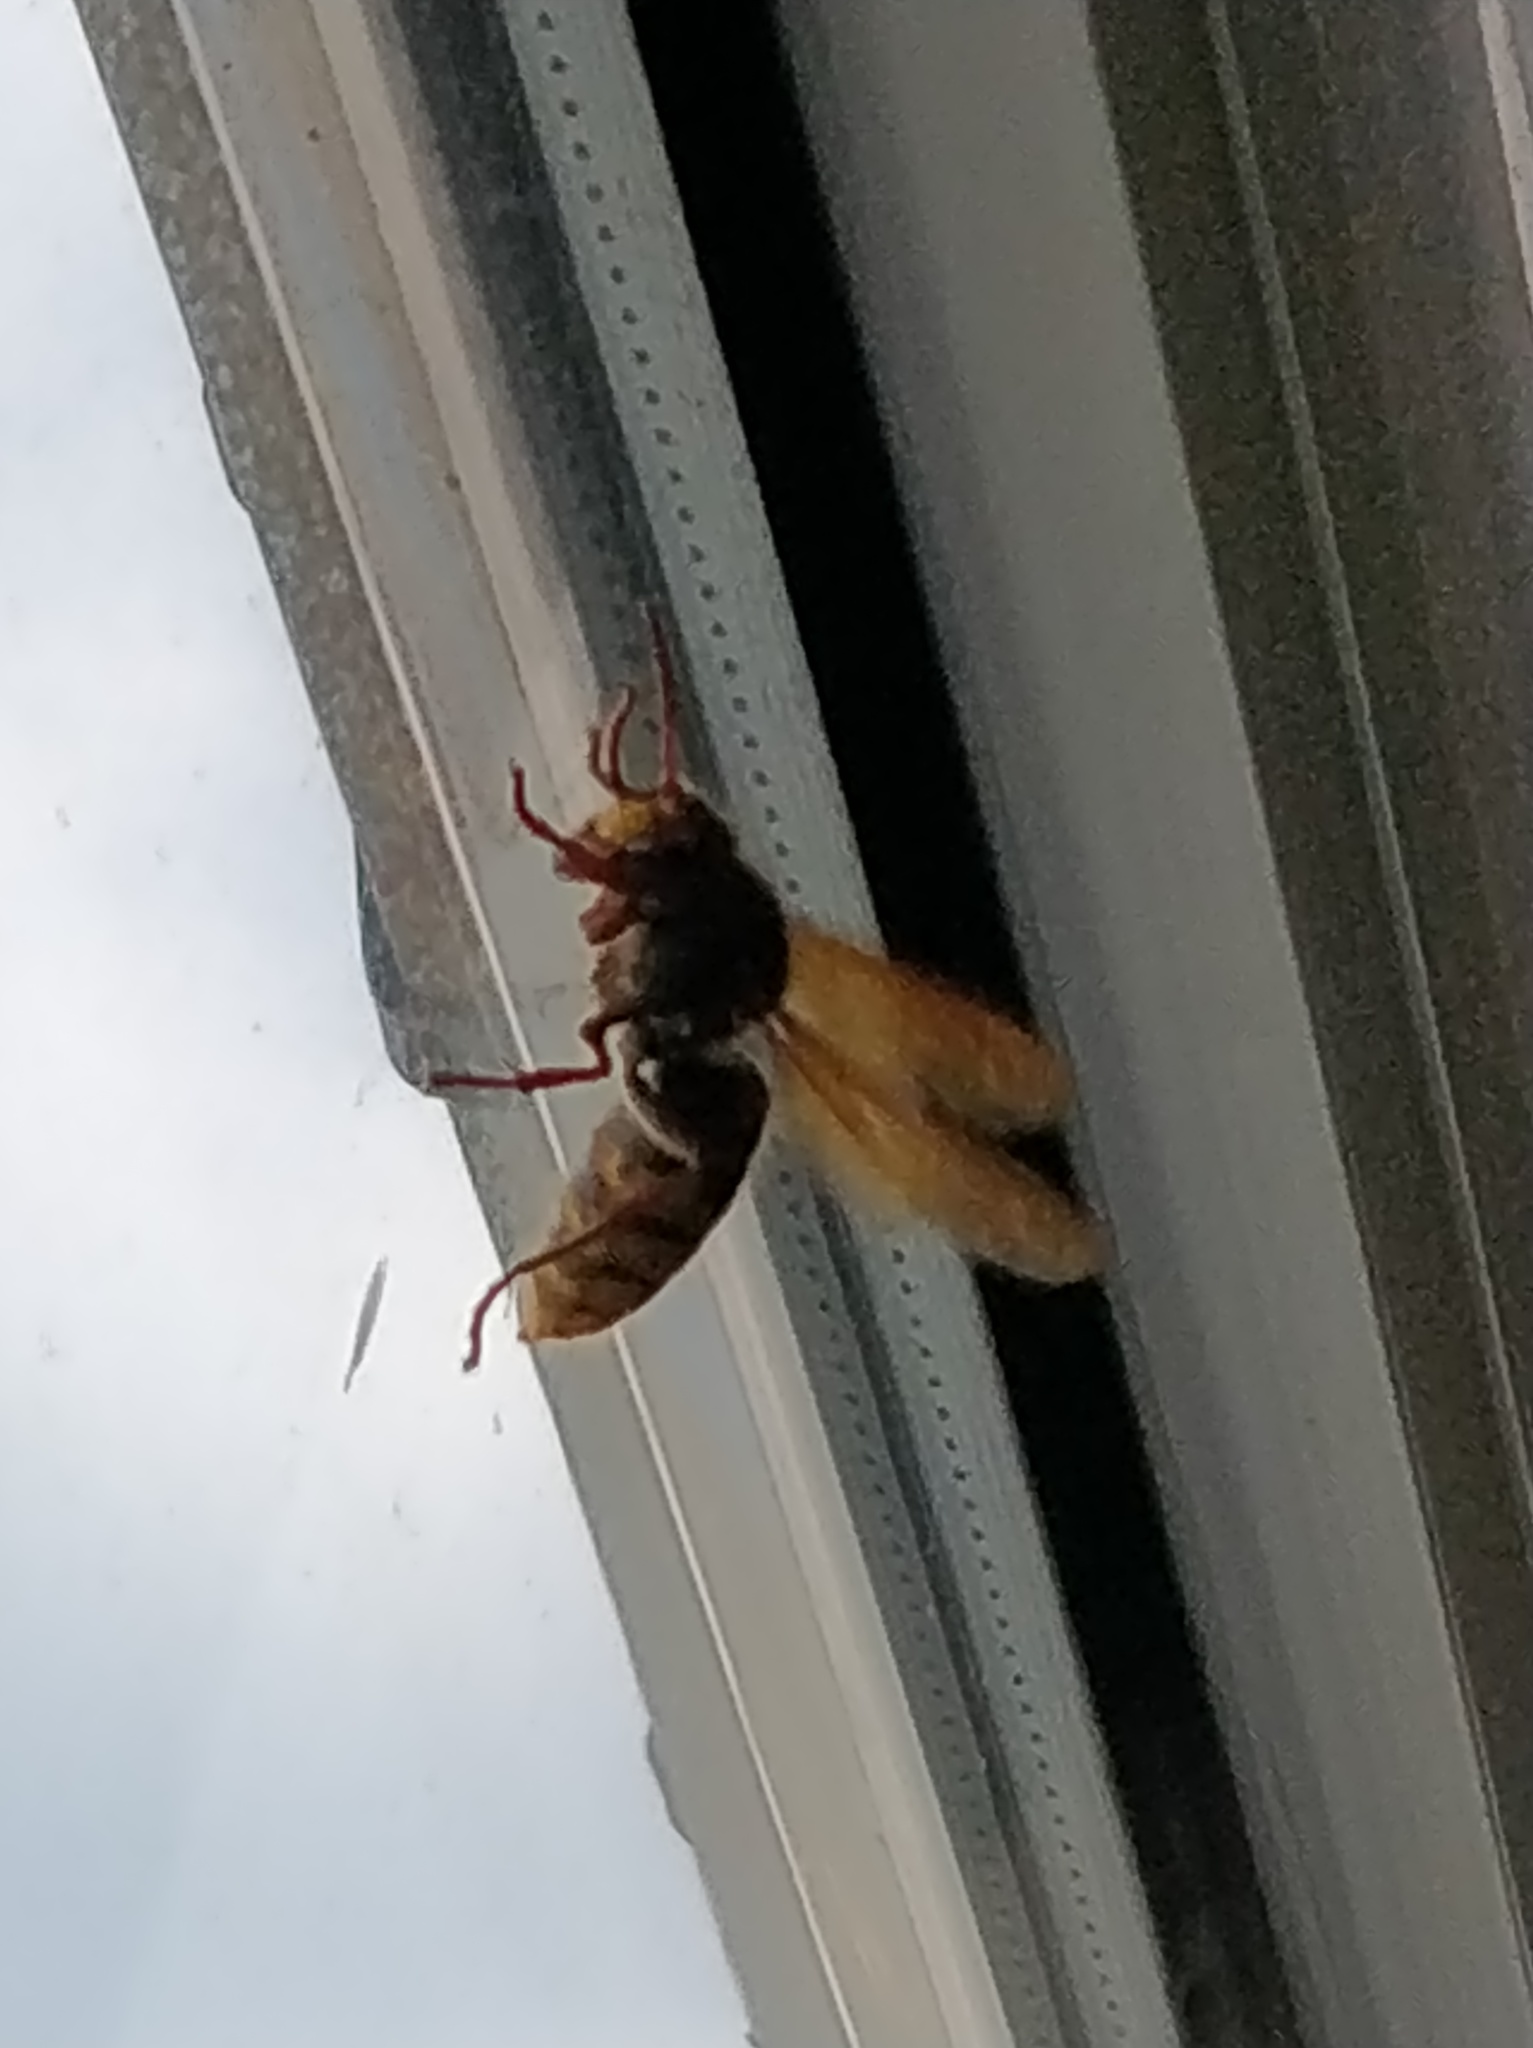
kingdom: Animalia
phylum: Arthropoda
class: Insecta
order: Hymenoptera
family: Vespidae
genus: Vespa
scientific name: Vespa crabro
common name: Hornet
